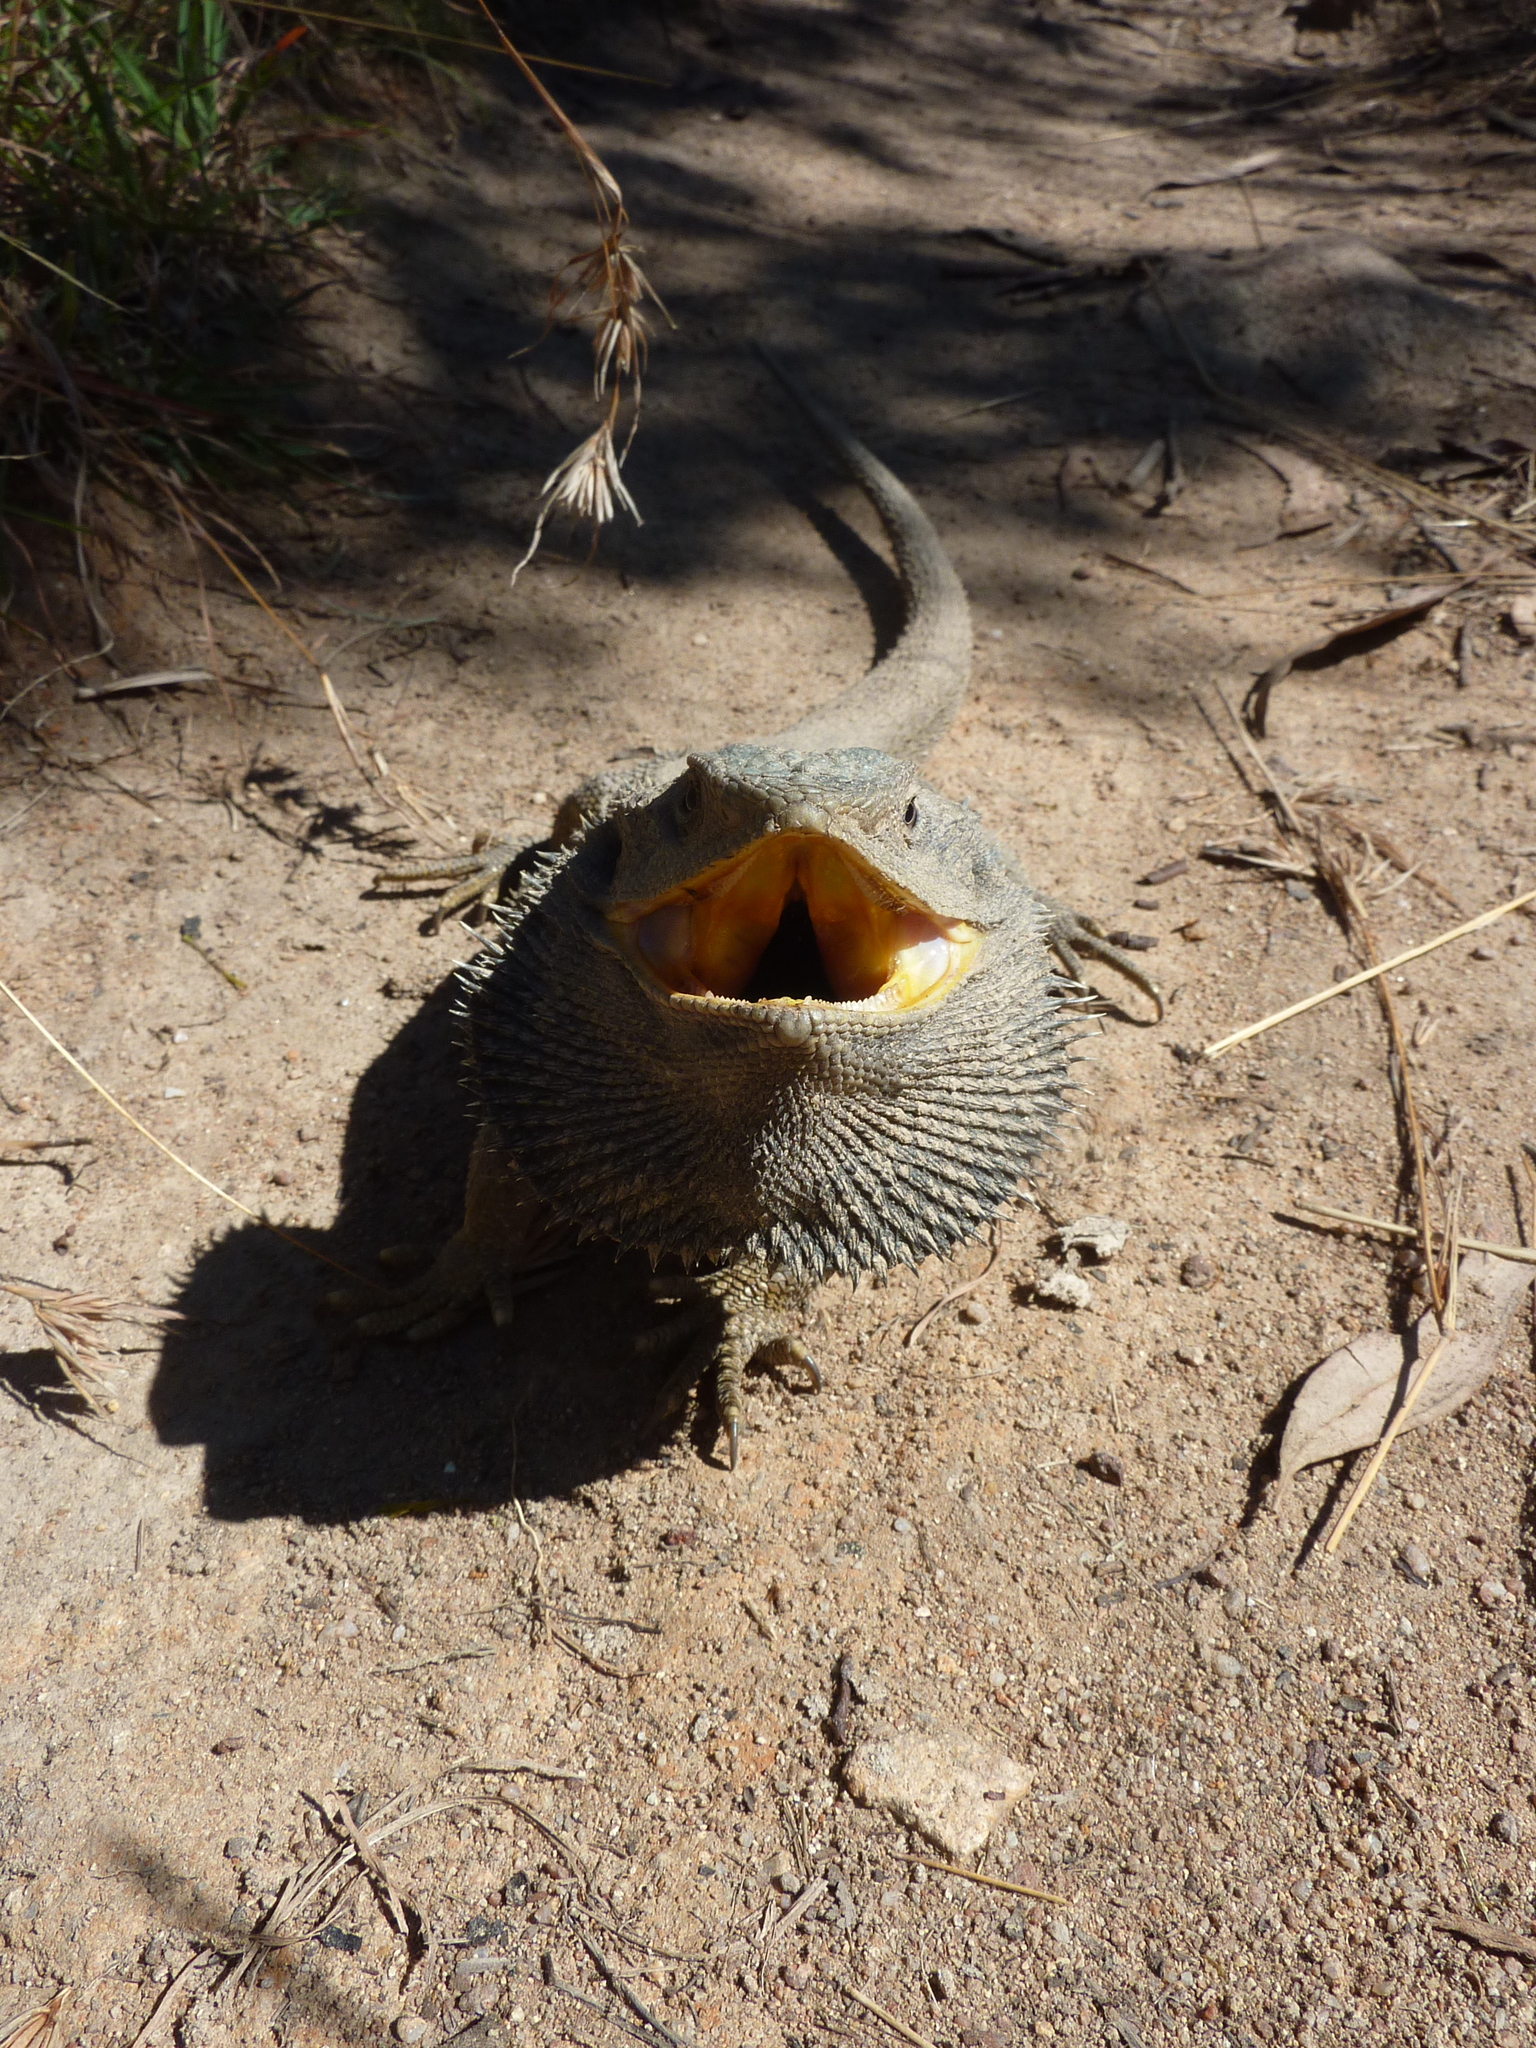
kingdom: Animalia
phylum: Chordata
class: Squamata
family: Agamidae
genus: Pogona
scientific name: Pogona barbata
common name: Bearded dragon
